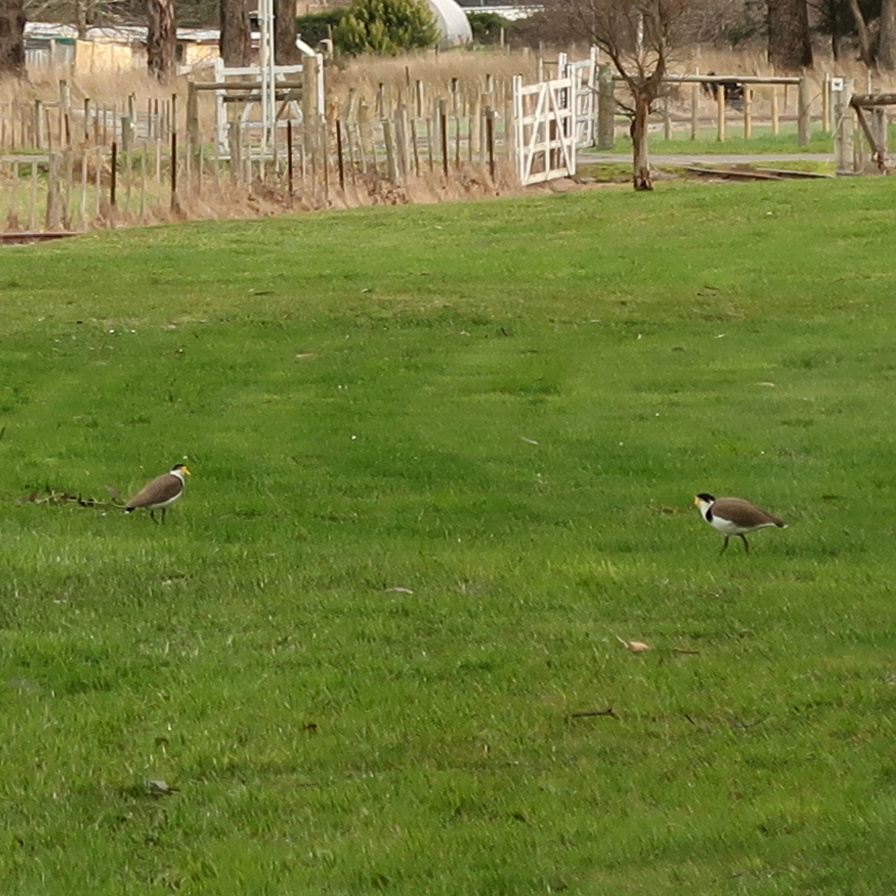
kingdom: Animalia
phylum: Chordata
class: Aves
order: Charadriiformes
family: Charadriidae
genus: Vanellus
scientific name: Vanellus miles
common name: Masked lapwing
